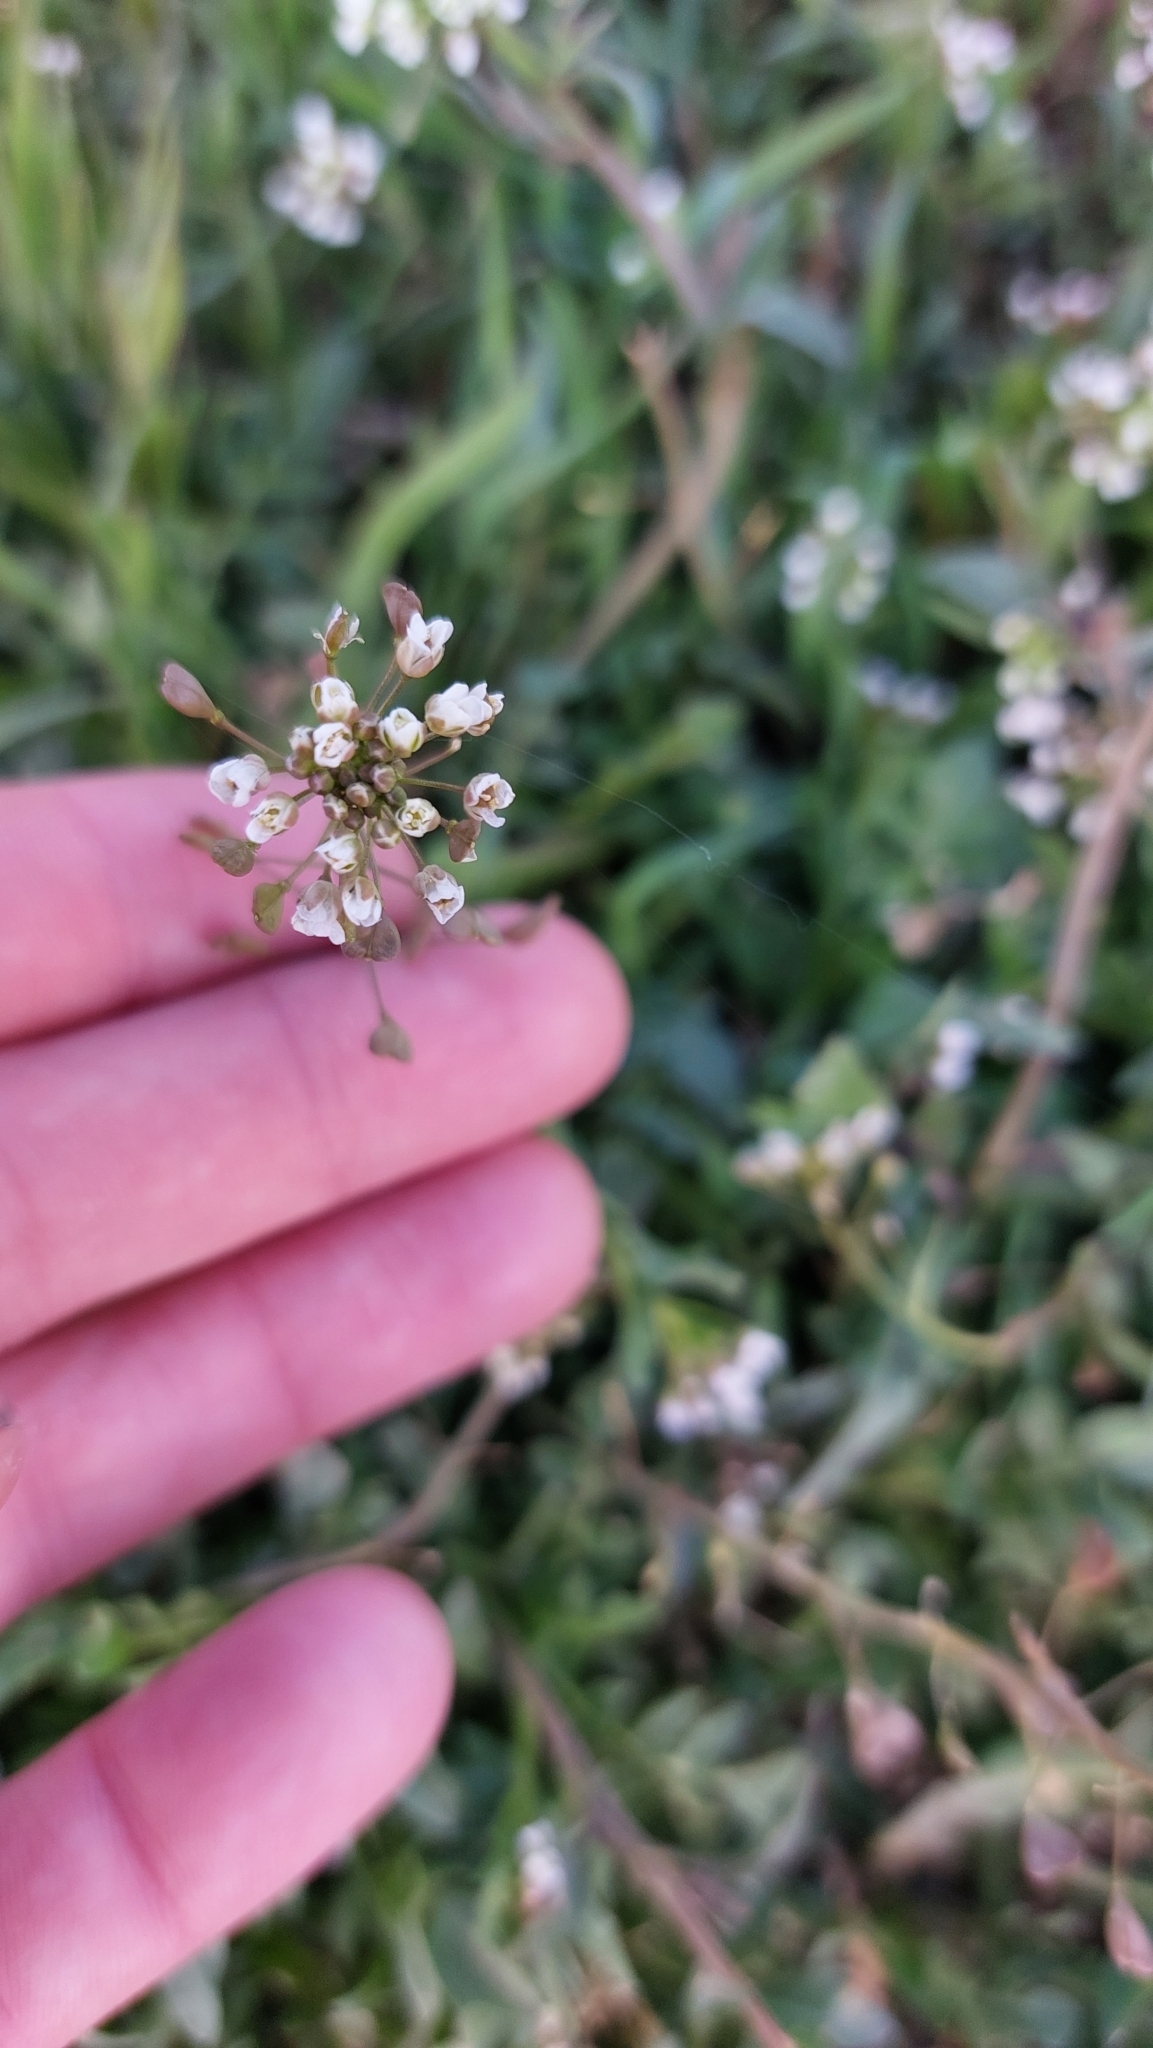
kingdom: Plantae
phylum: Tracheophyta
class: Magnoliopsida
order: Brassicales
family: Brassicaceae
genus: Capsella
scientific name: Capsella bursa-pastoris
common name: Shepherd's purse
